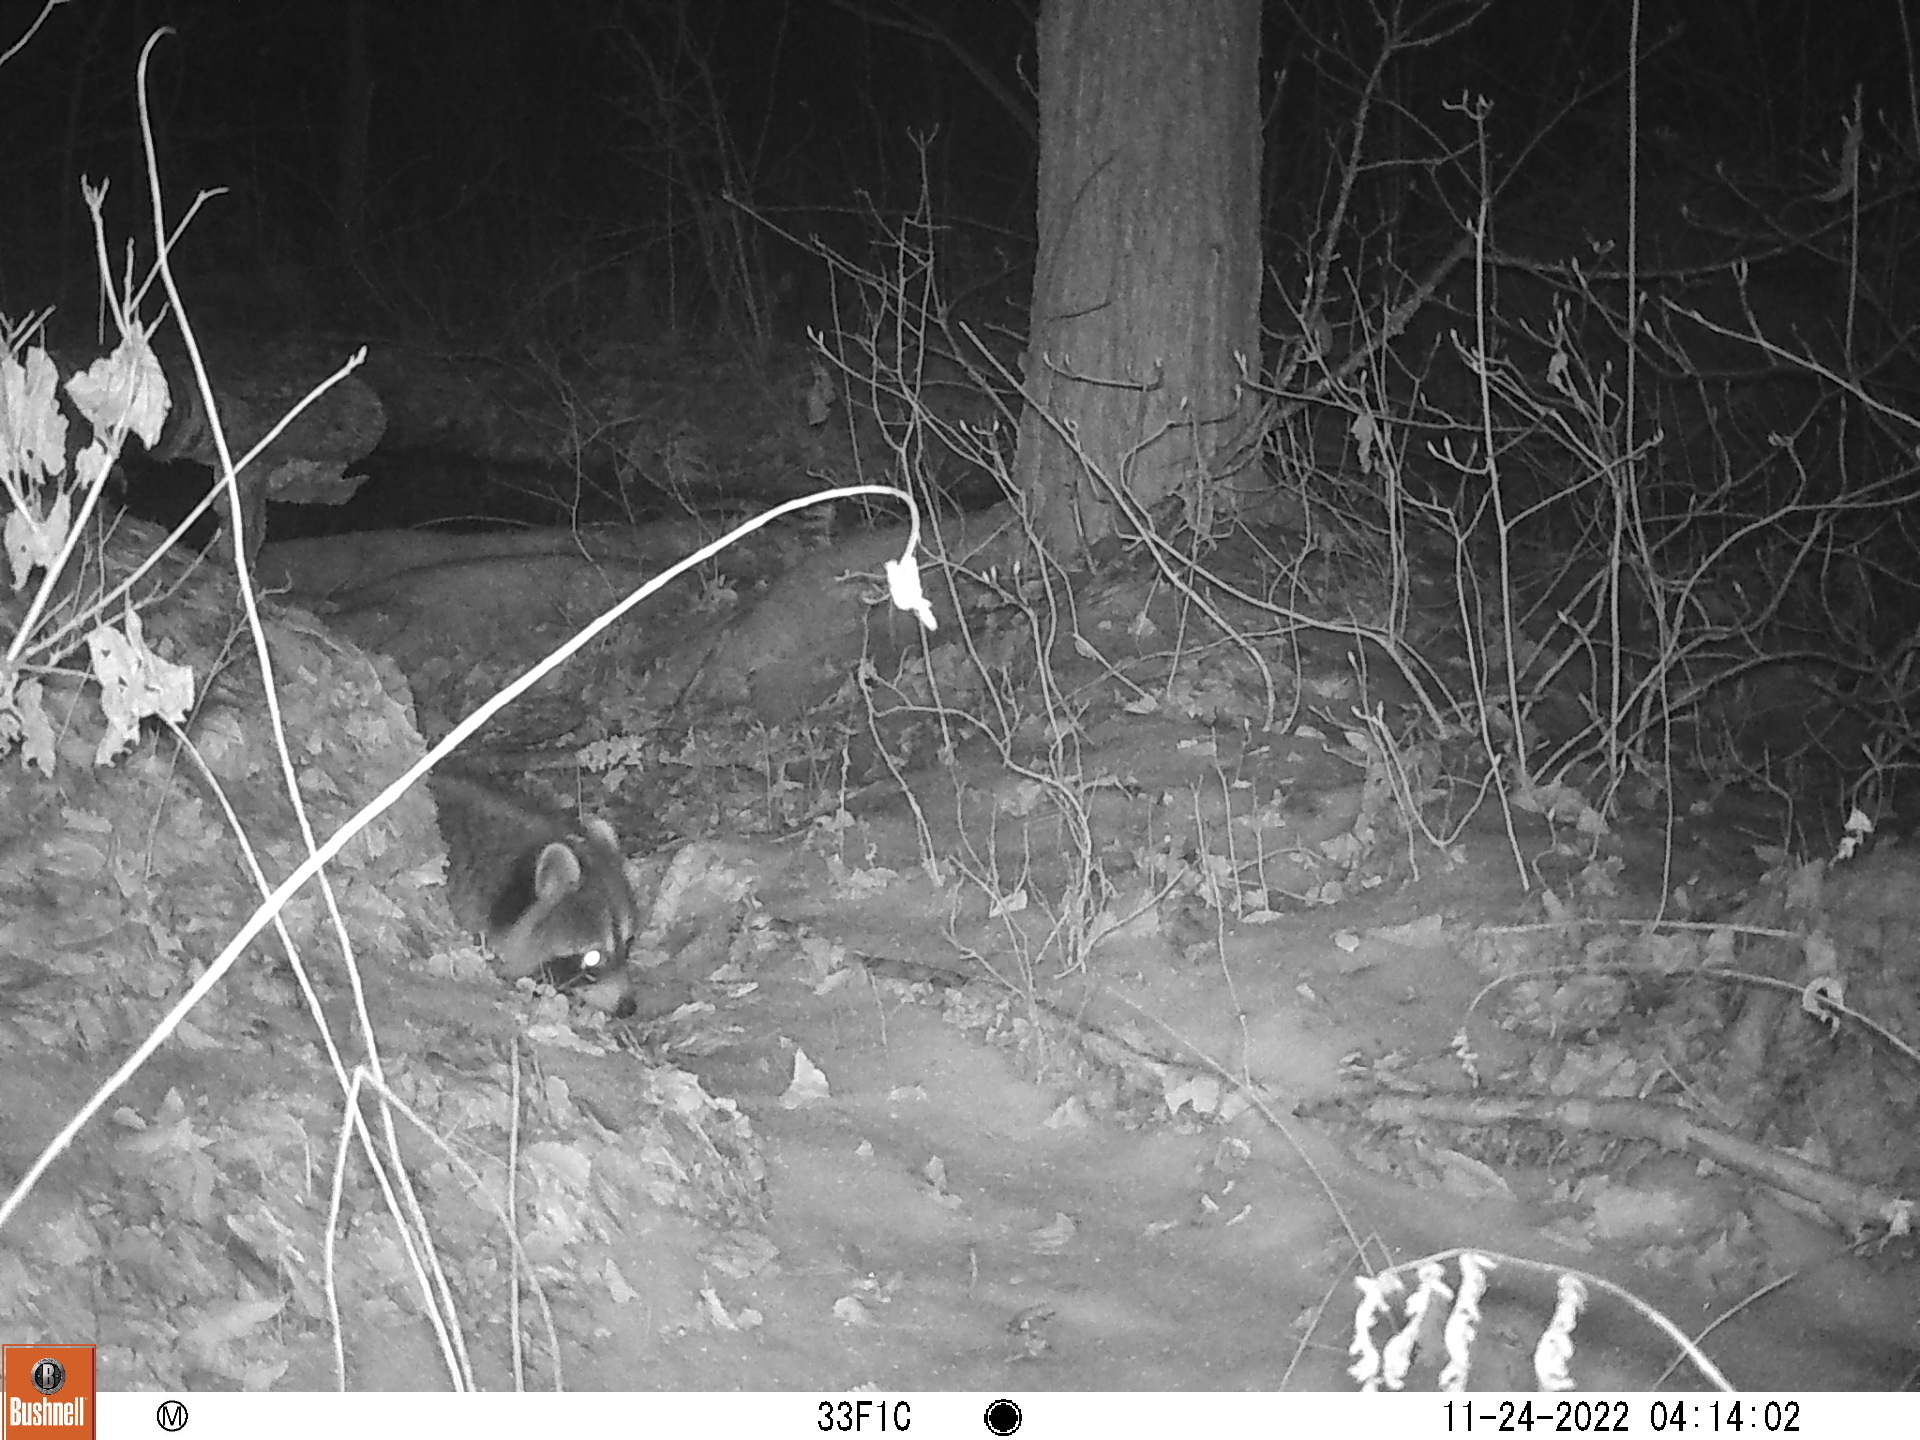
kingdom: Animalia
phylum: Chordata
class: Mammalia
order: Carnivora
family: Procyonidae
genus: Procyon
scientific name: Procyon lotor
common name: Raccoon
